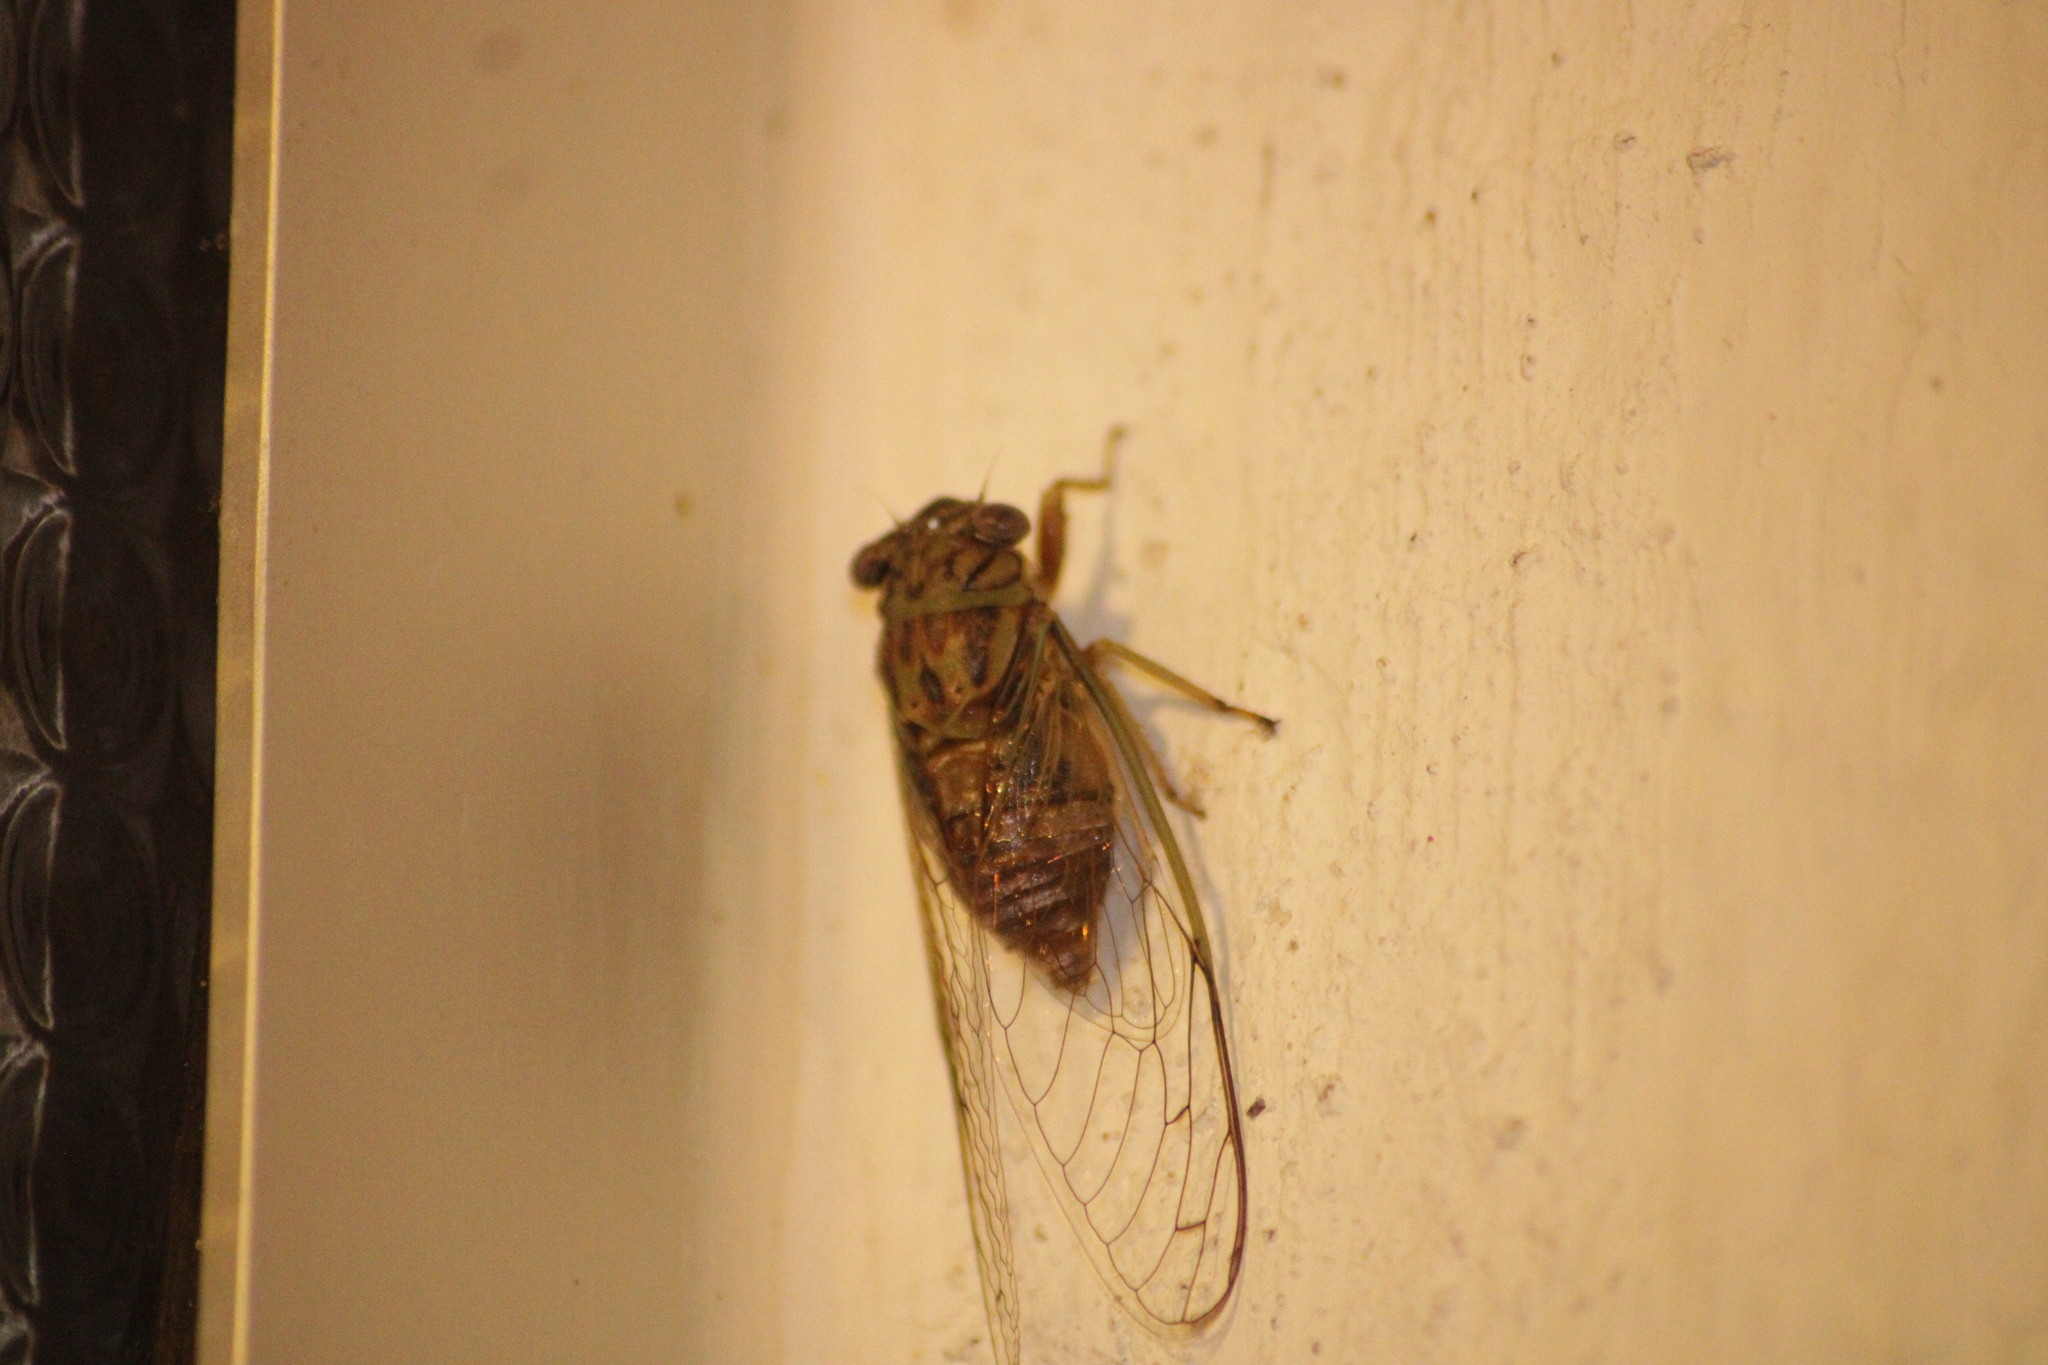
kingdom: Animalia
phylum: Arthropoda
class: Insecta
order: Hemiptera
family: Cicadidae
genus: Diceroprocta
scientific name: Diceroprocta oculata
